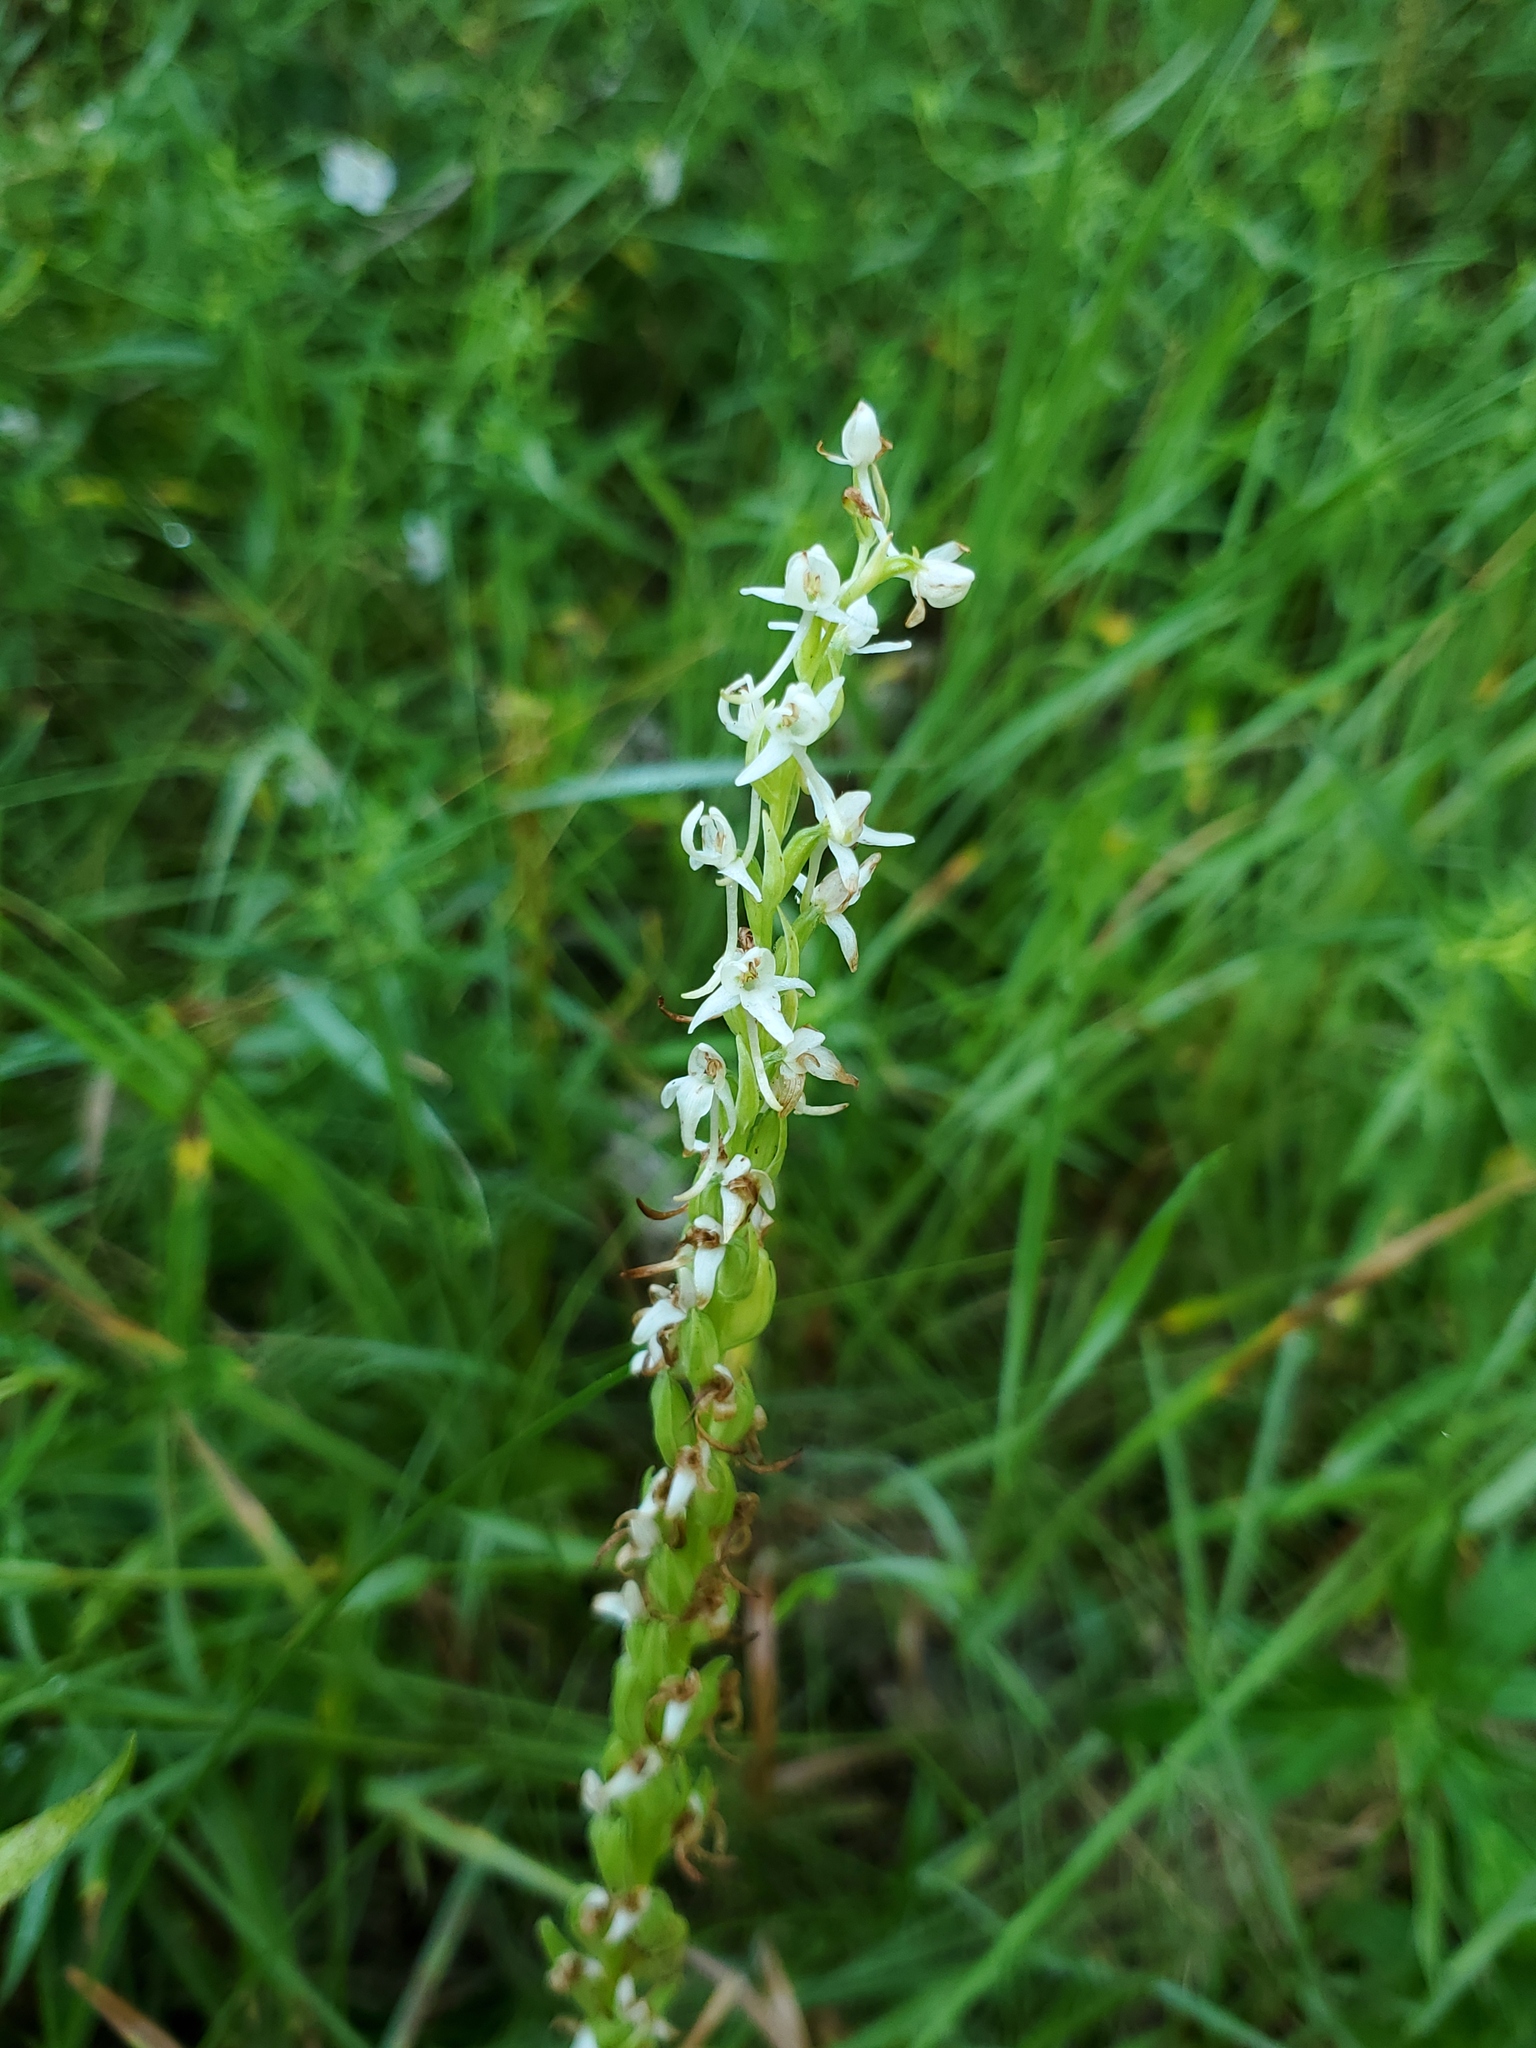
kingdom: Plantae
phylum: Tracheophyta
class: Liliopsida
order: Asparagales
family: Orchidaceae
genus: Platanthera
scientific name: Platanthera dilatata
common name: Bog candles
